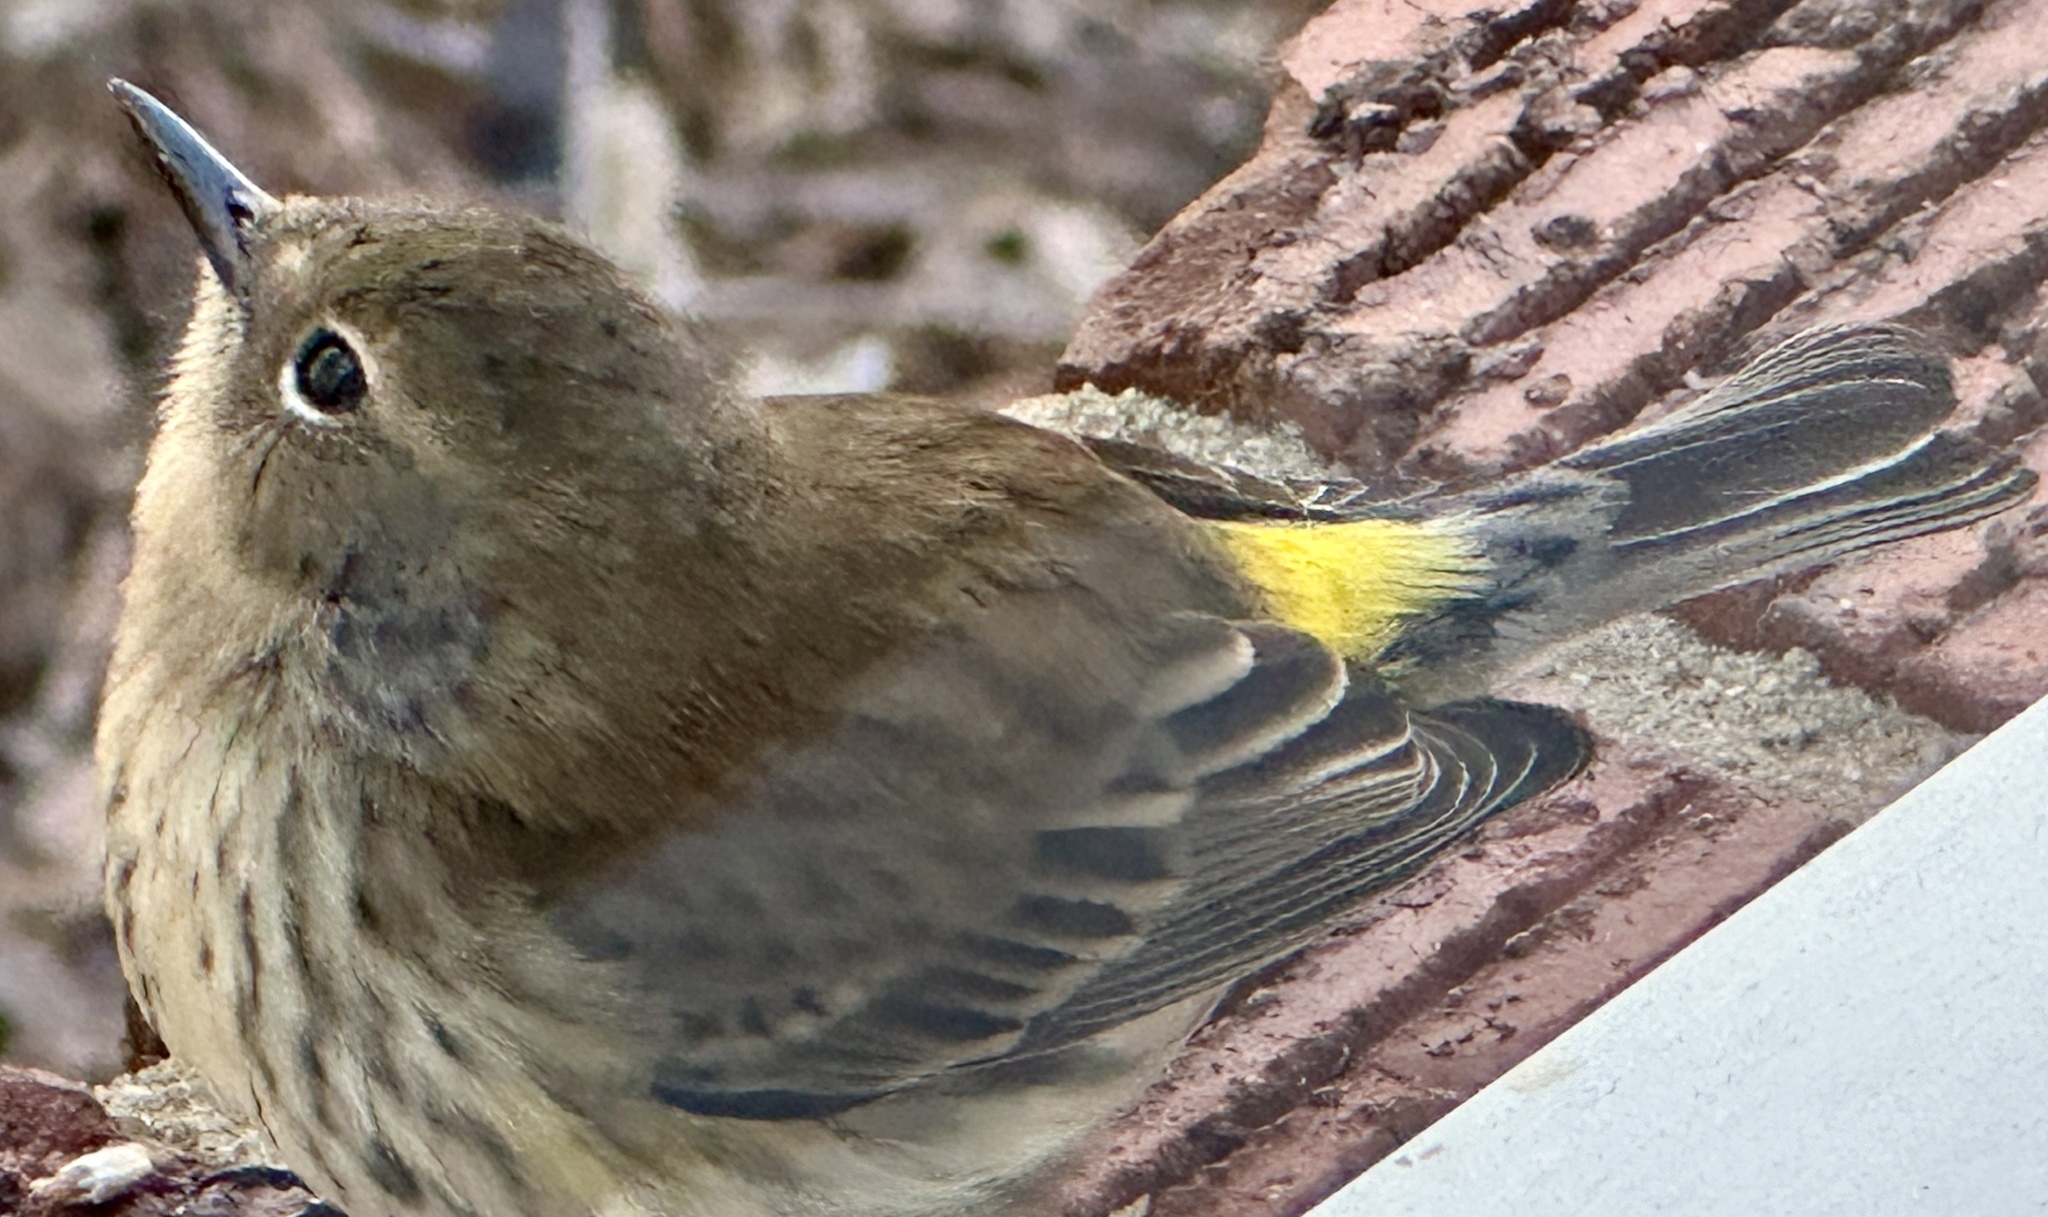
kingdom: Animalia
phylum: Chordata
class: Aves
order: Passeriformes
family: Parulidae
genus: Setophaga
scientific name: Setophaga coronata
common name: Myrtle warbler
